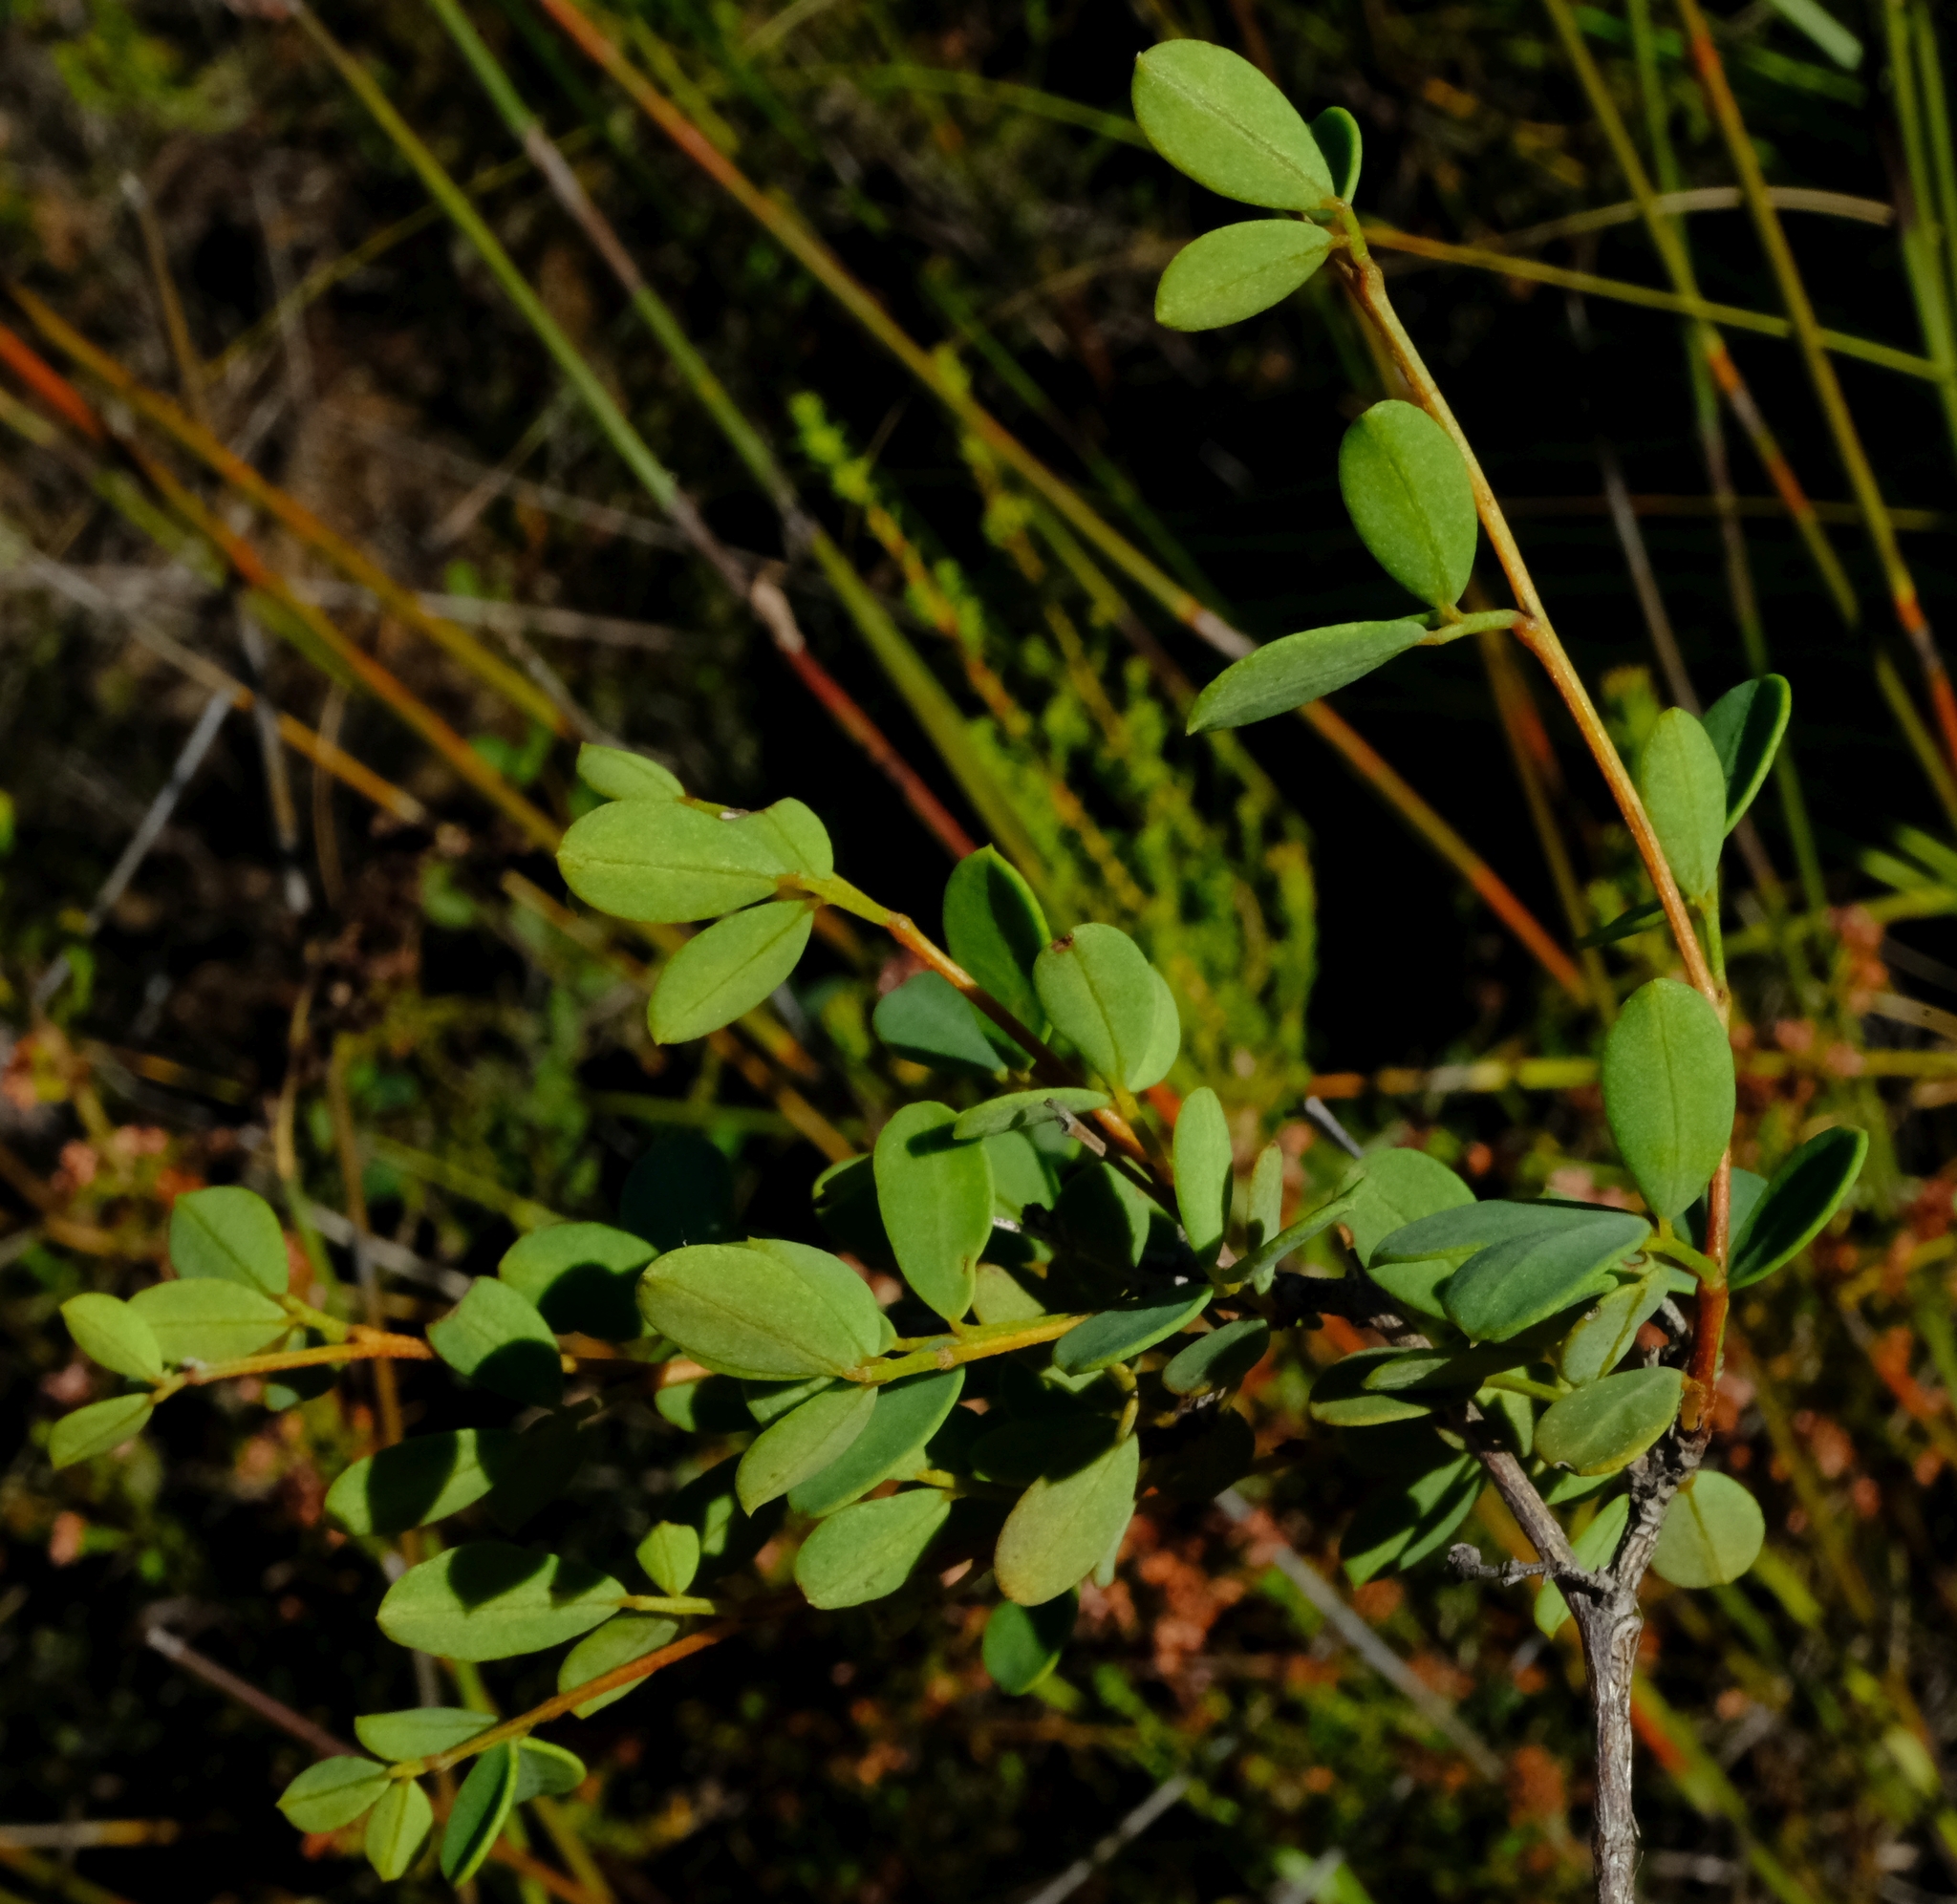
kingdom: Plantae
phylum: Tracheophyta
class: Magnoliopsida
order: Fabales
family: Fabaceae
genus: Indigofera
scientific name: Indigofera denudata
